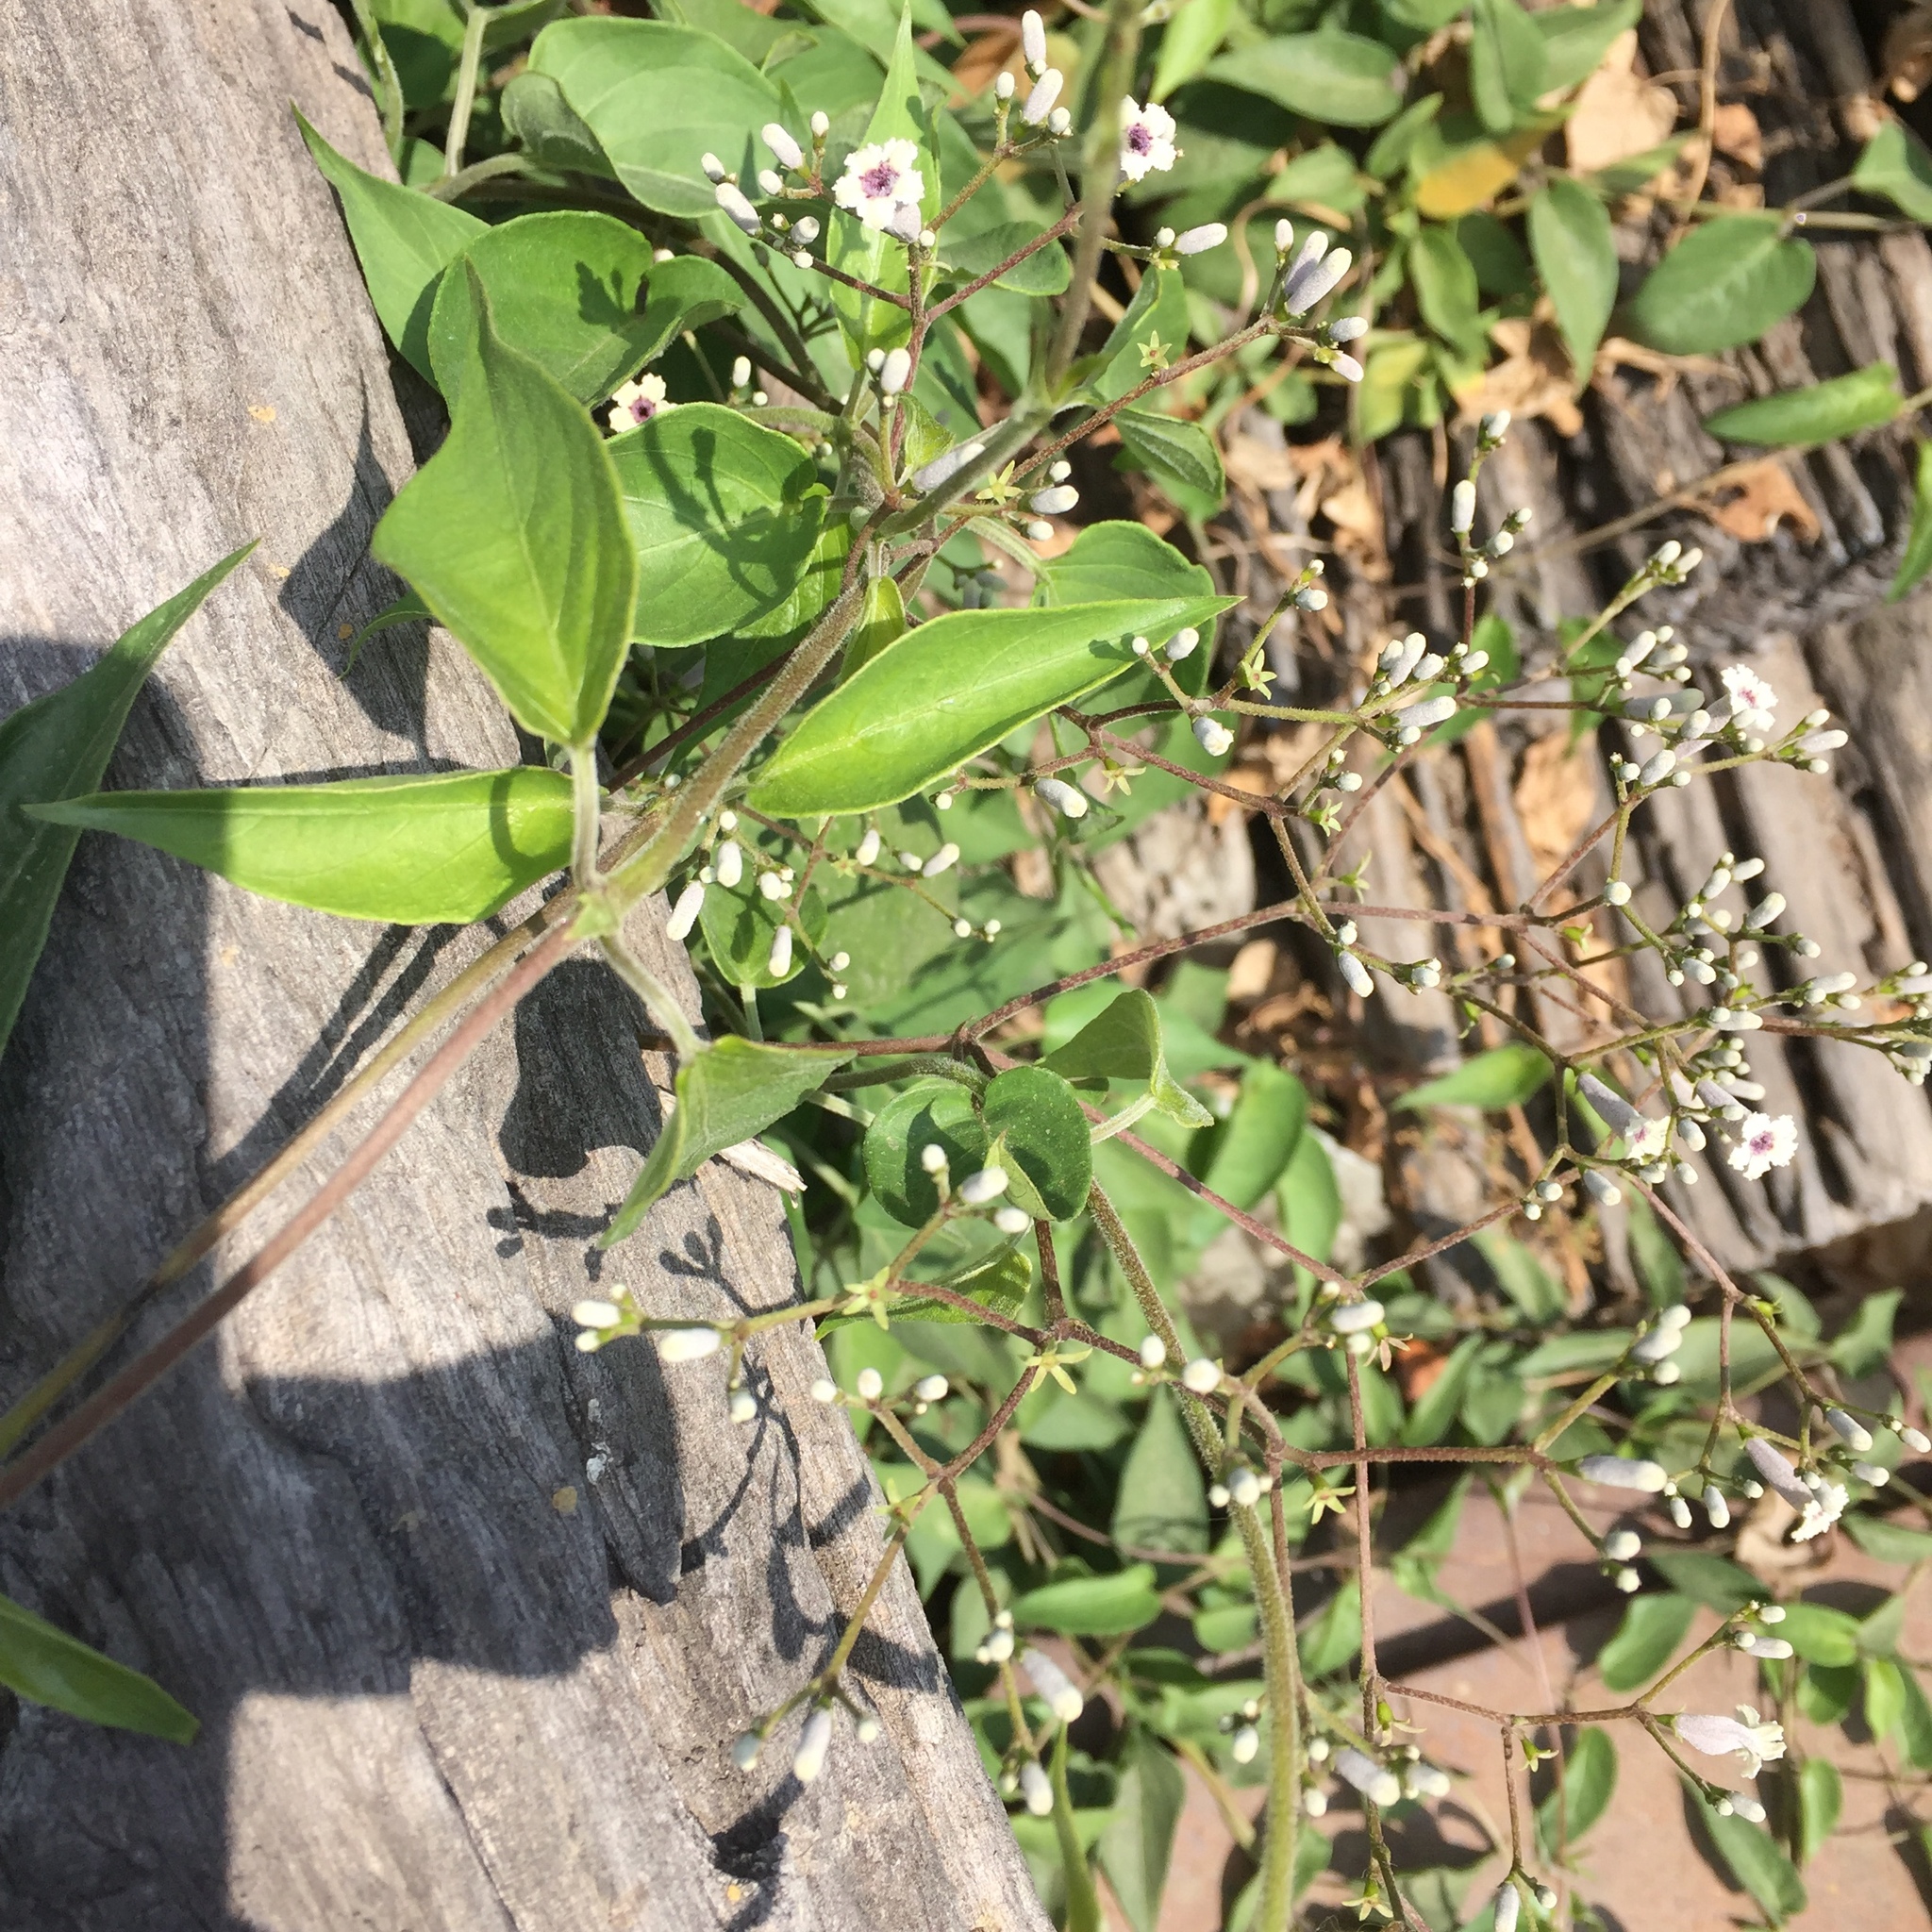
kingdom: Plantae
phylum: Tracheophyta
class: Magnoliopsida
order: Gentianales
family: Rubiaceae
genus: Paederia
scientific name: Paederia foetida
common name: Stinkvine
